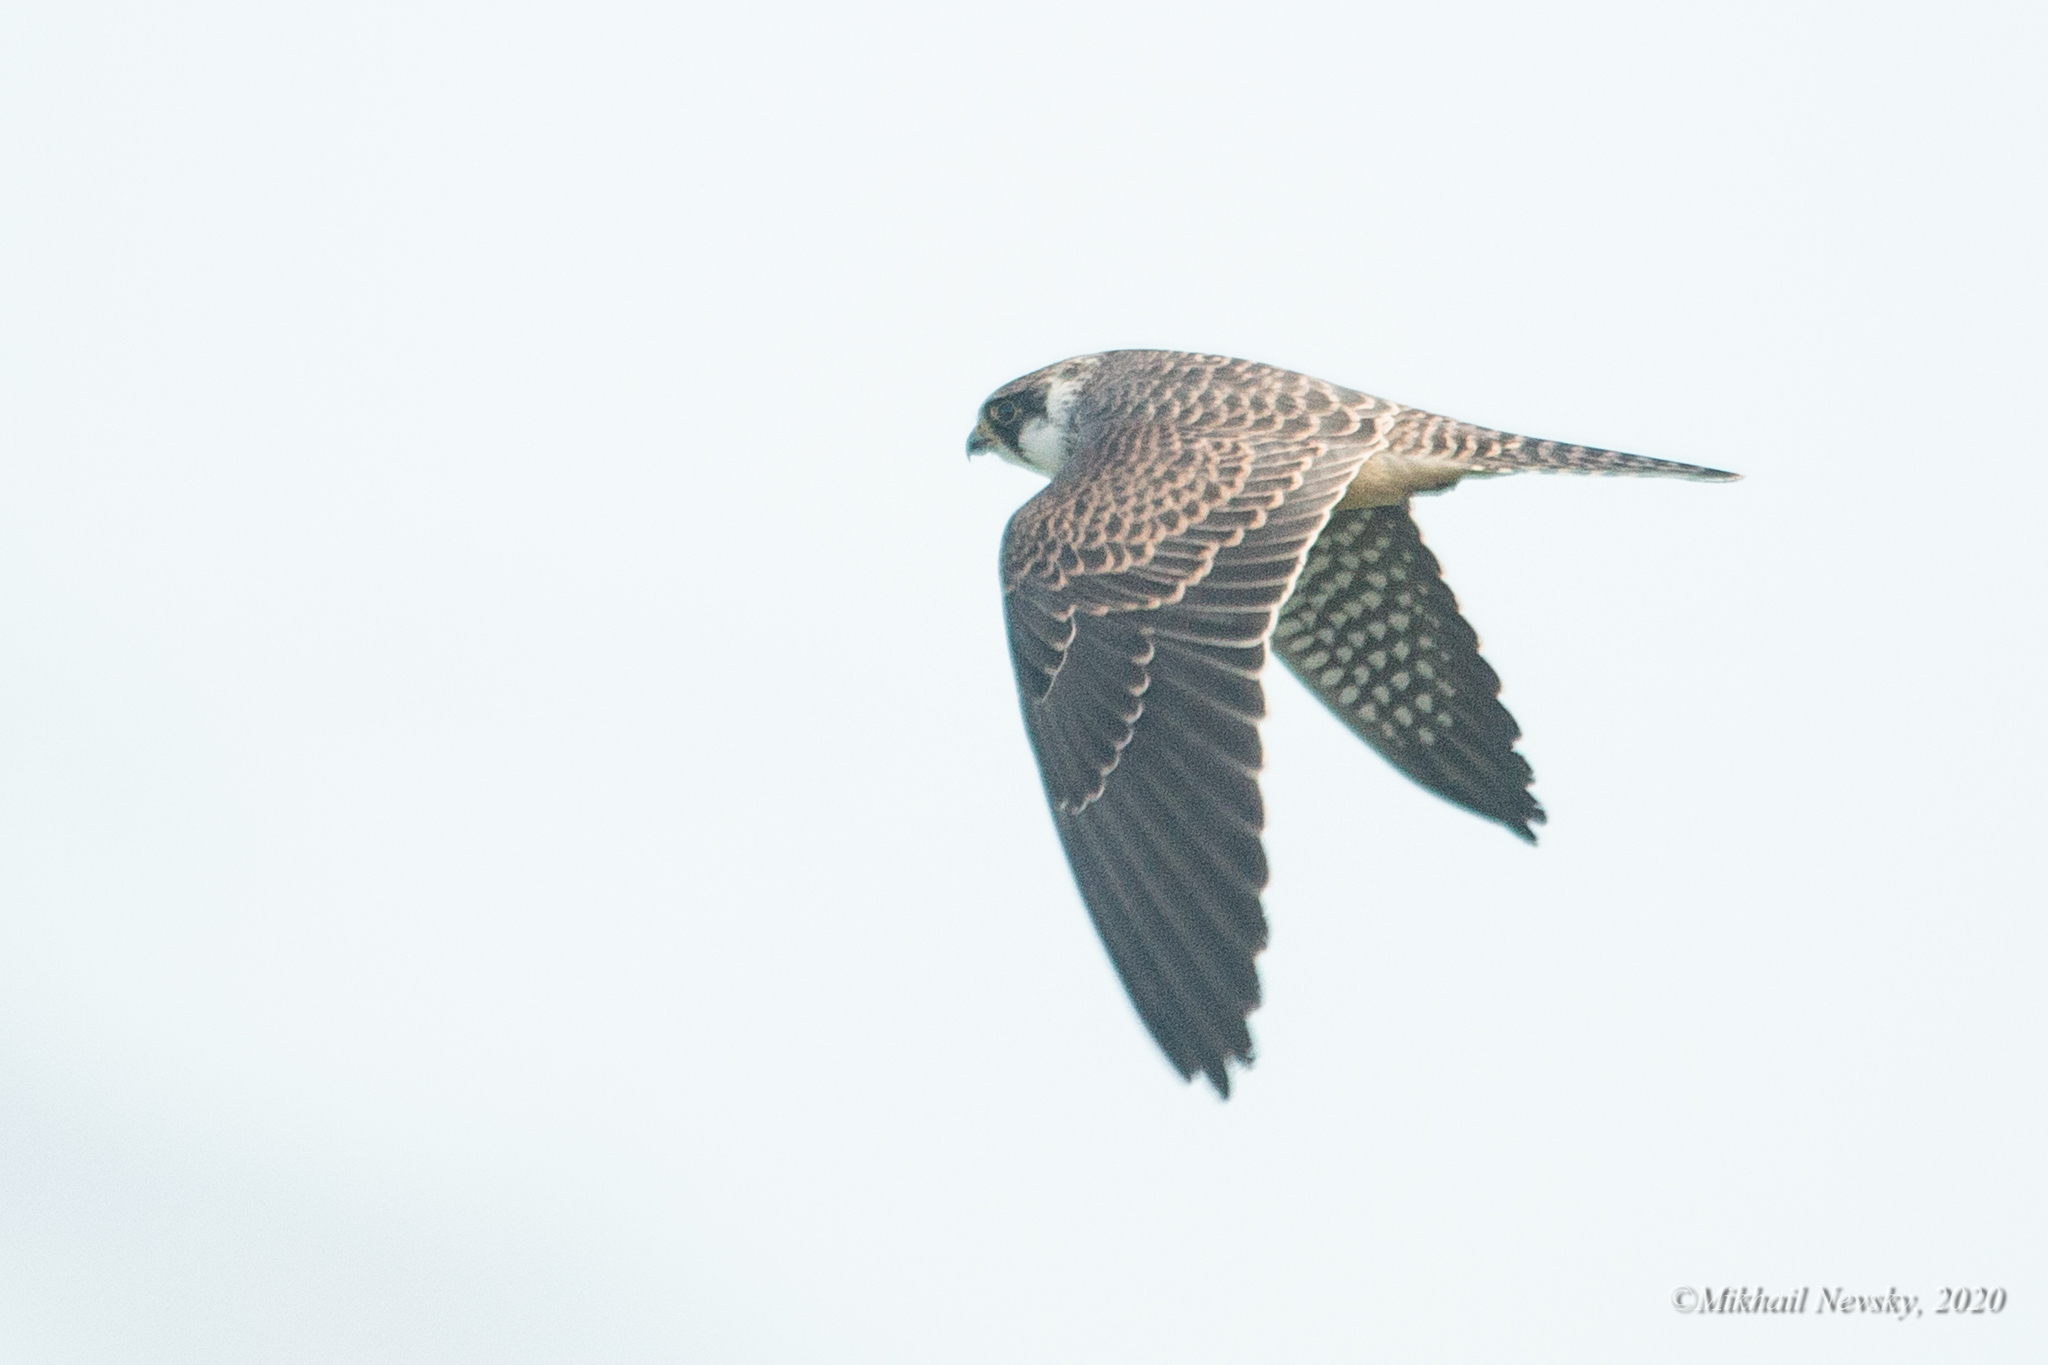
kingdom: Animalia
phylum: Chordata
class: Aves
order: Falconiformes
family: Falconidae
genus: Falco
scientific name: Falco vespertinus
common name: Red-footed falcon
